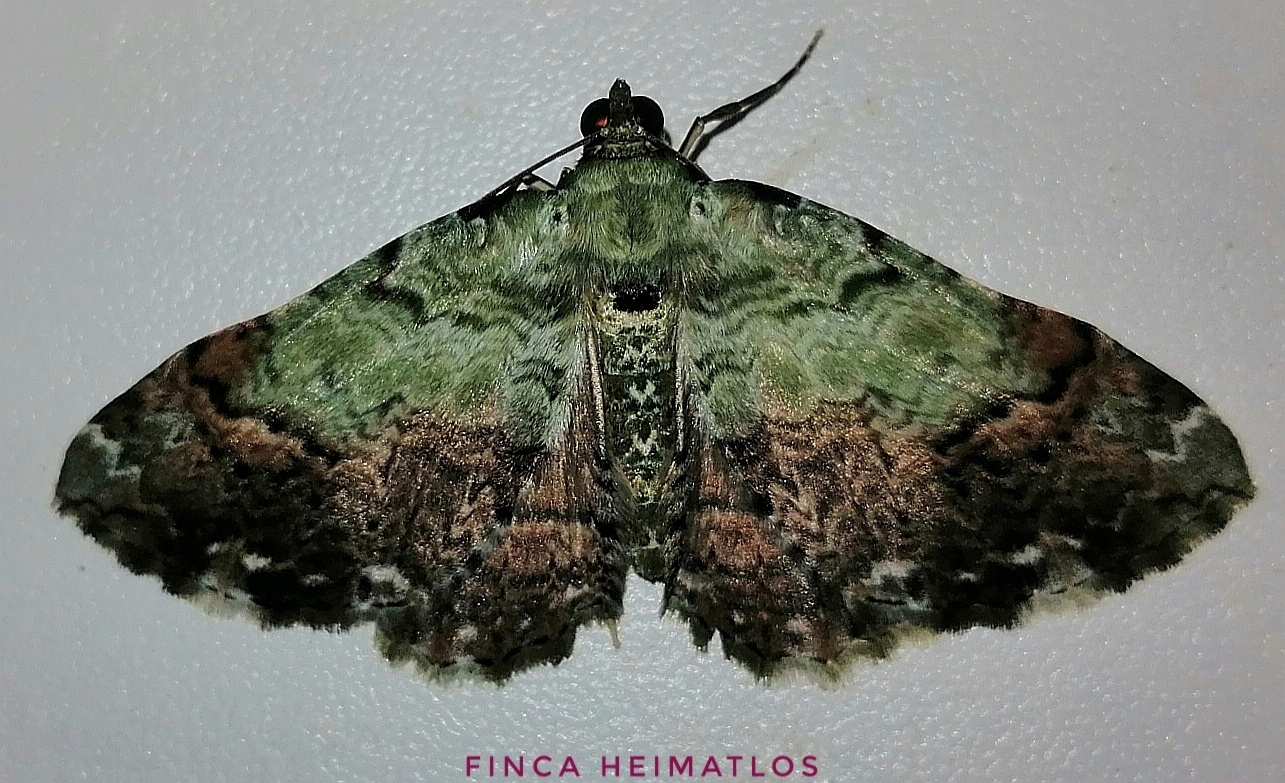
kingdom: Animalia
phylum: Arthropoda
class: Insecta
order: Lepidoptera
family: Geometridae
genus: Pterocypha
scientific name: Pterocypha gibbosaria
